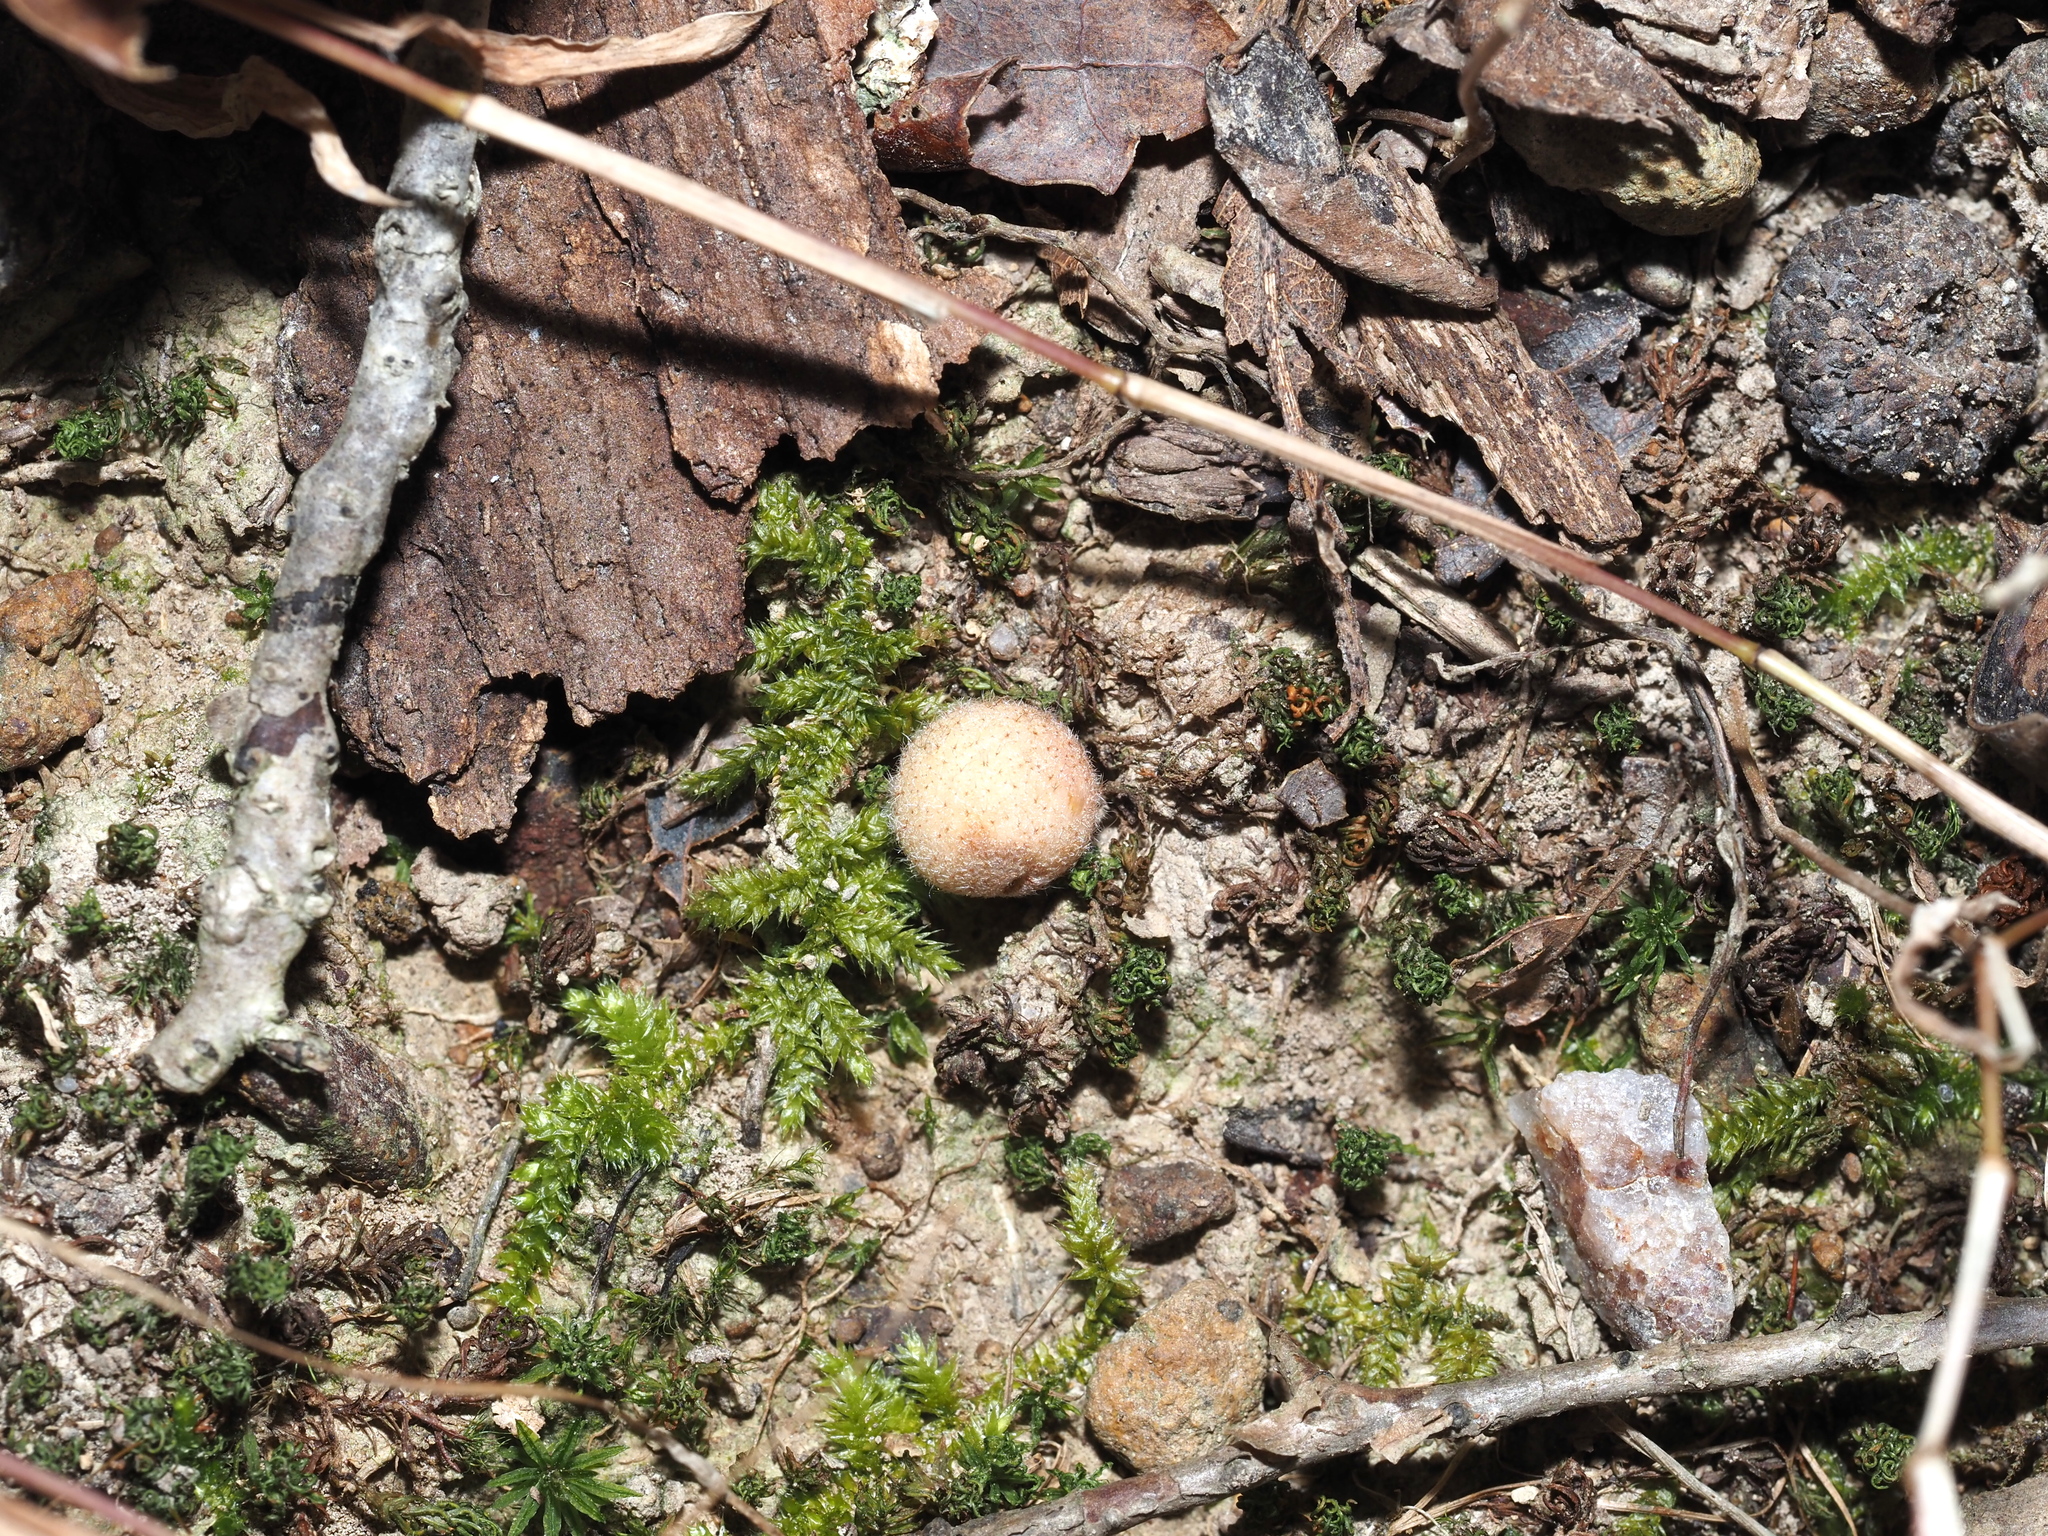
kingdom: Animalia
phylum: Arthropoda
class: Insecta
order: Hymenoptera
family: Cynipidae
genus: Philonix
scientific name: Philonix fulvicollis
